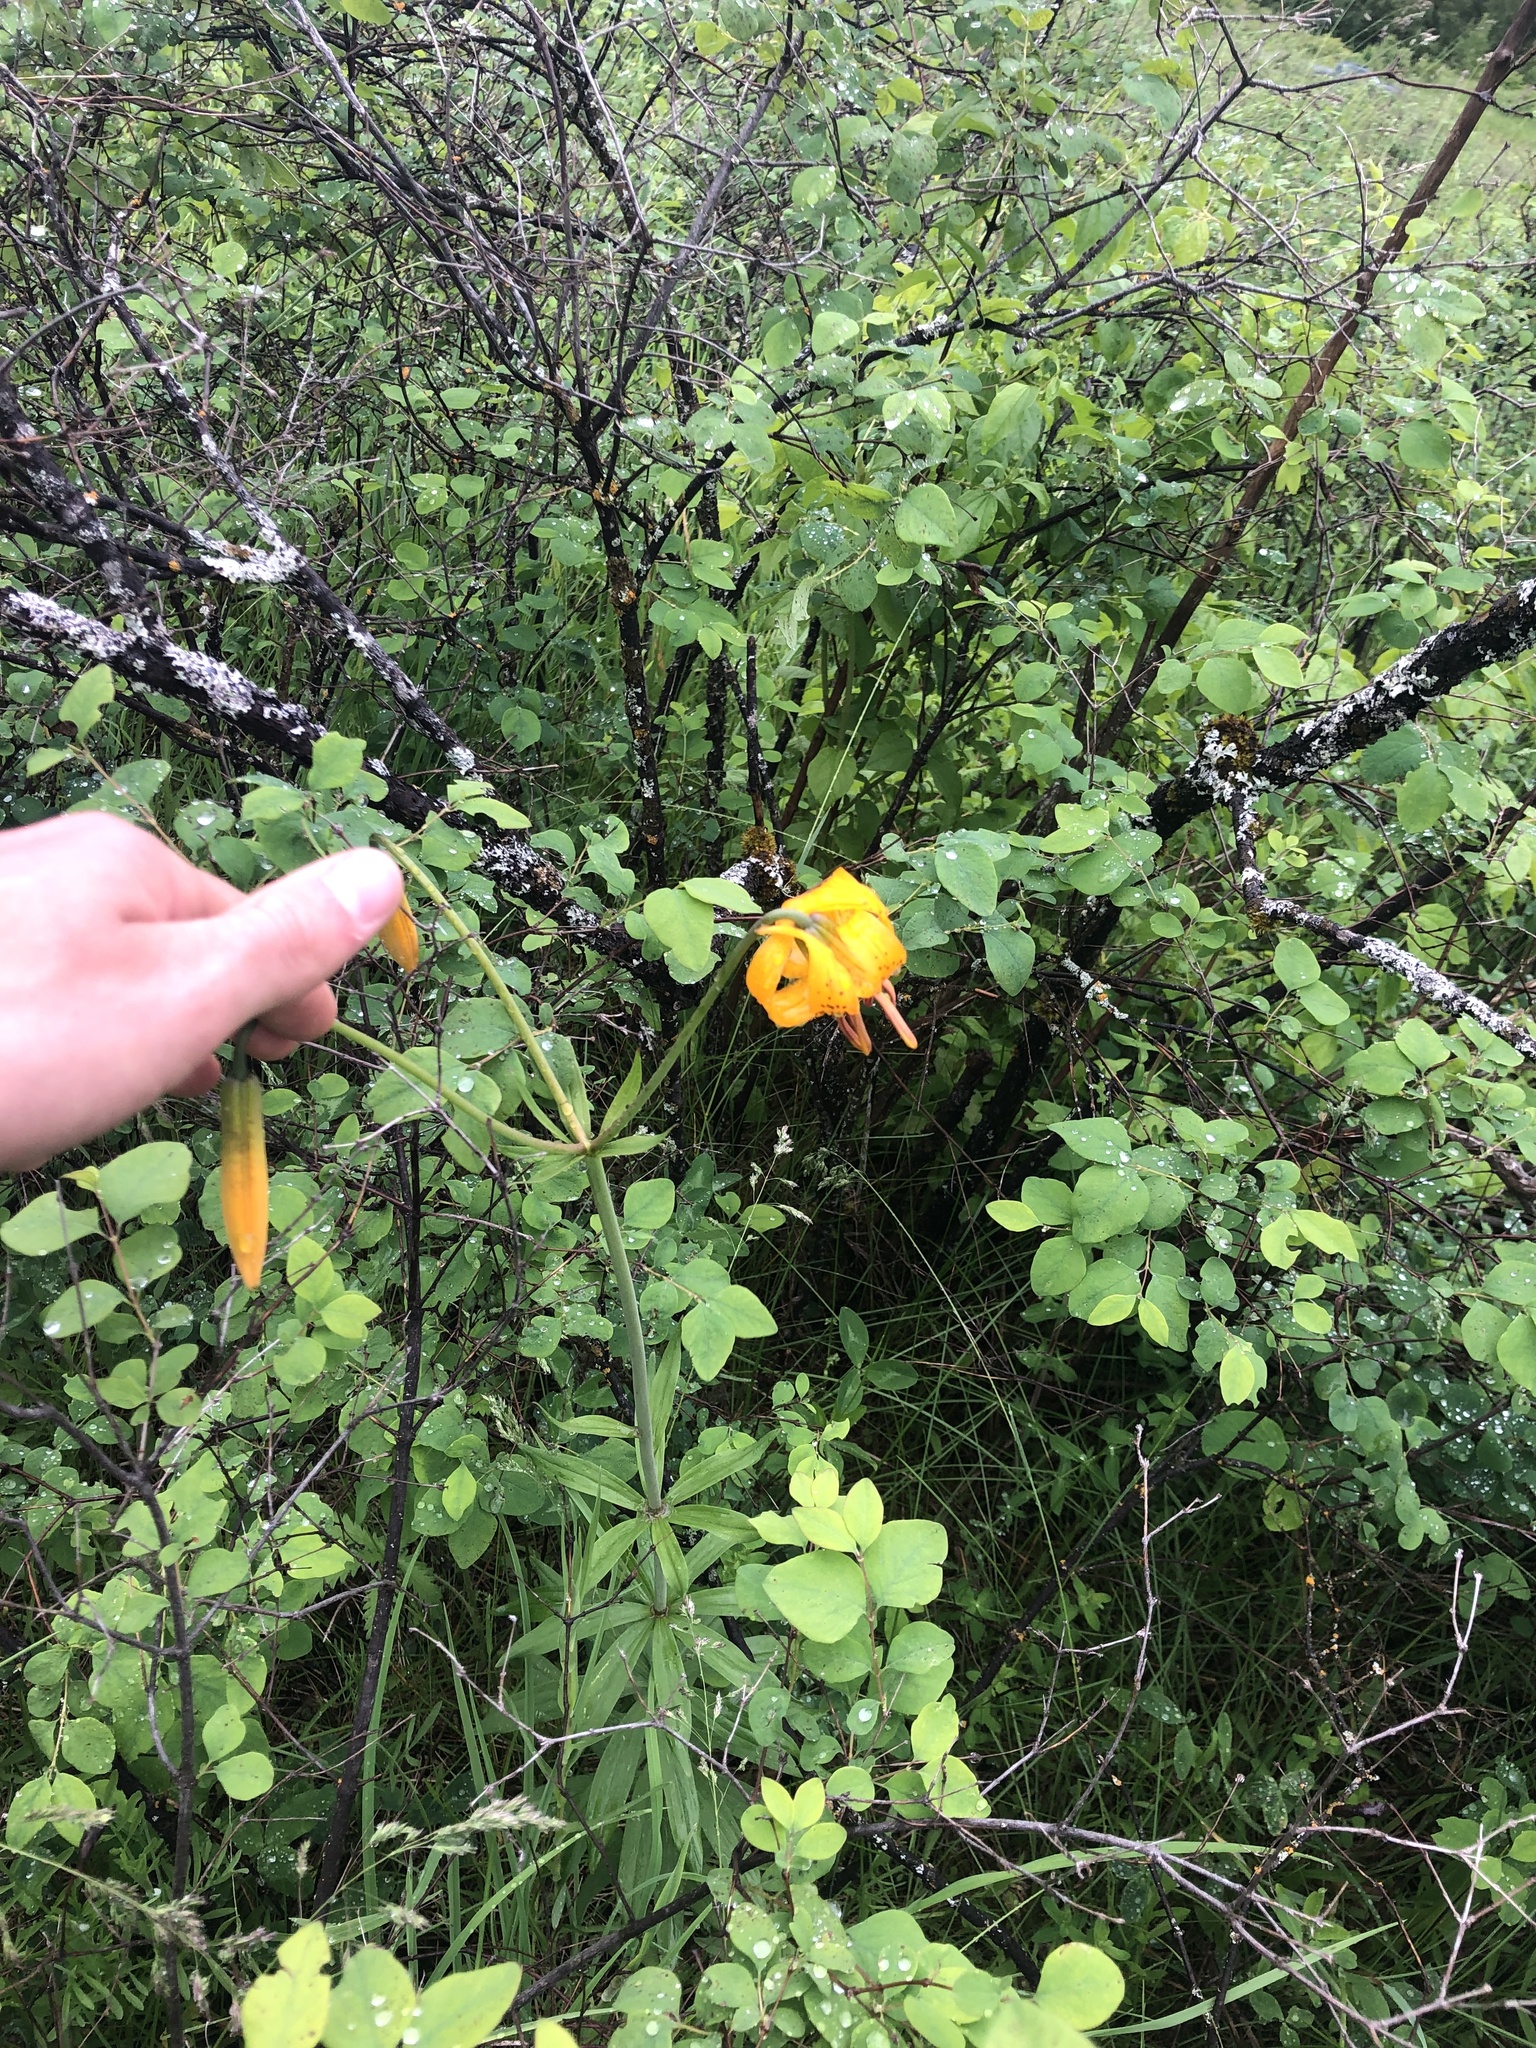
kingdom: Plantae
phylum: Tracheophyta
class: Liliopsida
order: Liliales
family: Liliaceae
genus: Lilium
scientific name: Lilium columbianum
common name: Columbia lily
